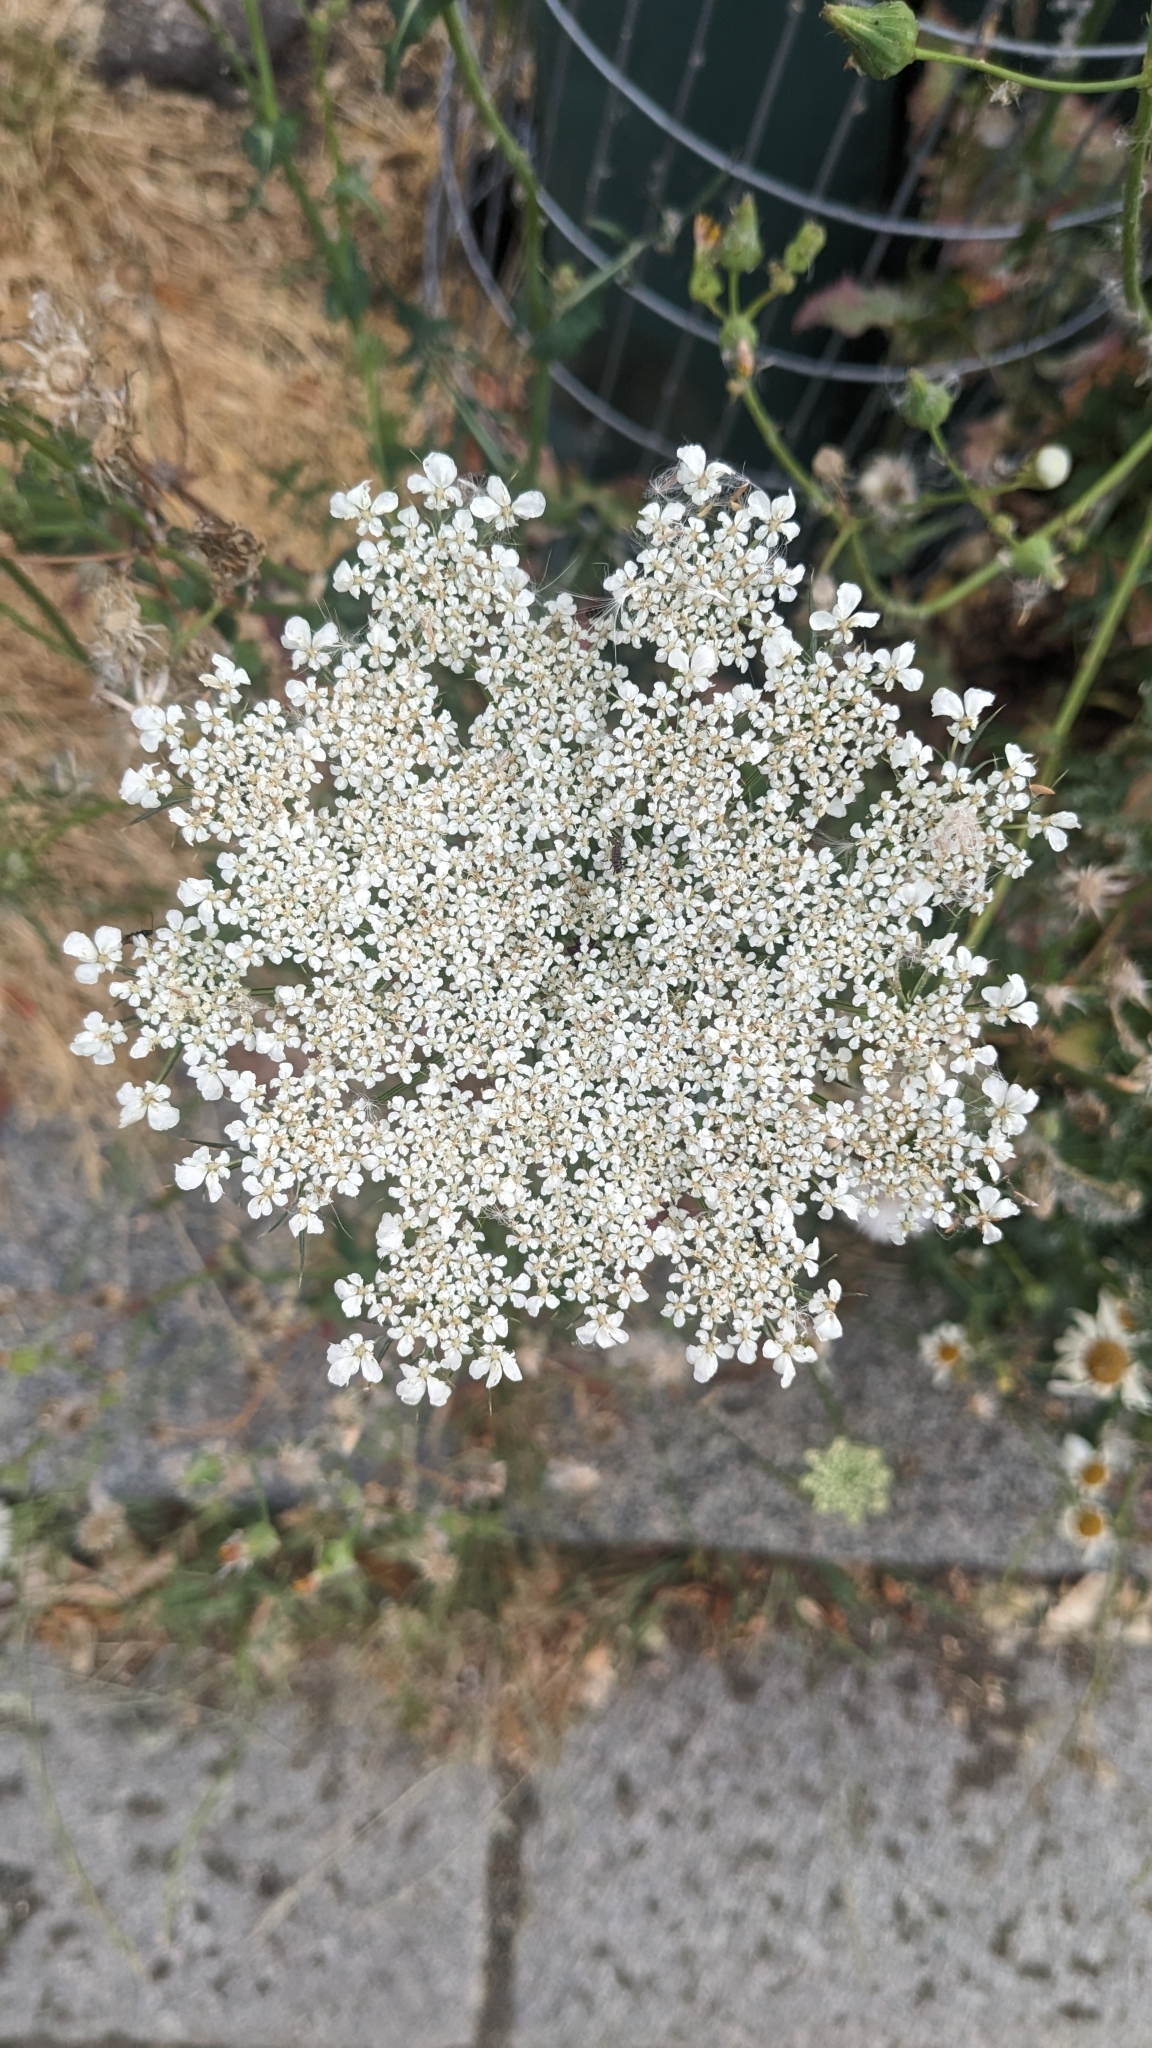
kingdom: Plantae
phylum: Tracheophyta
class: Magnoliopsida
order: Apiales
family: Apiaceae
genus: Daucus
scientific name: Daucus carota
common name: Wild carrot
